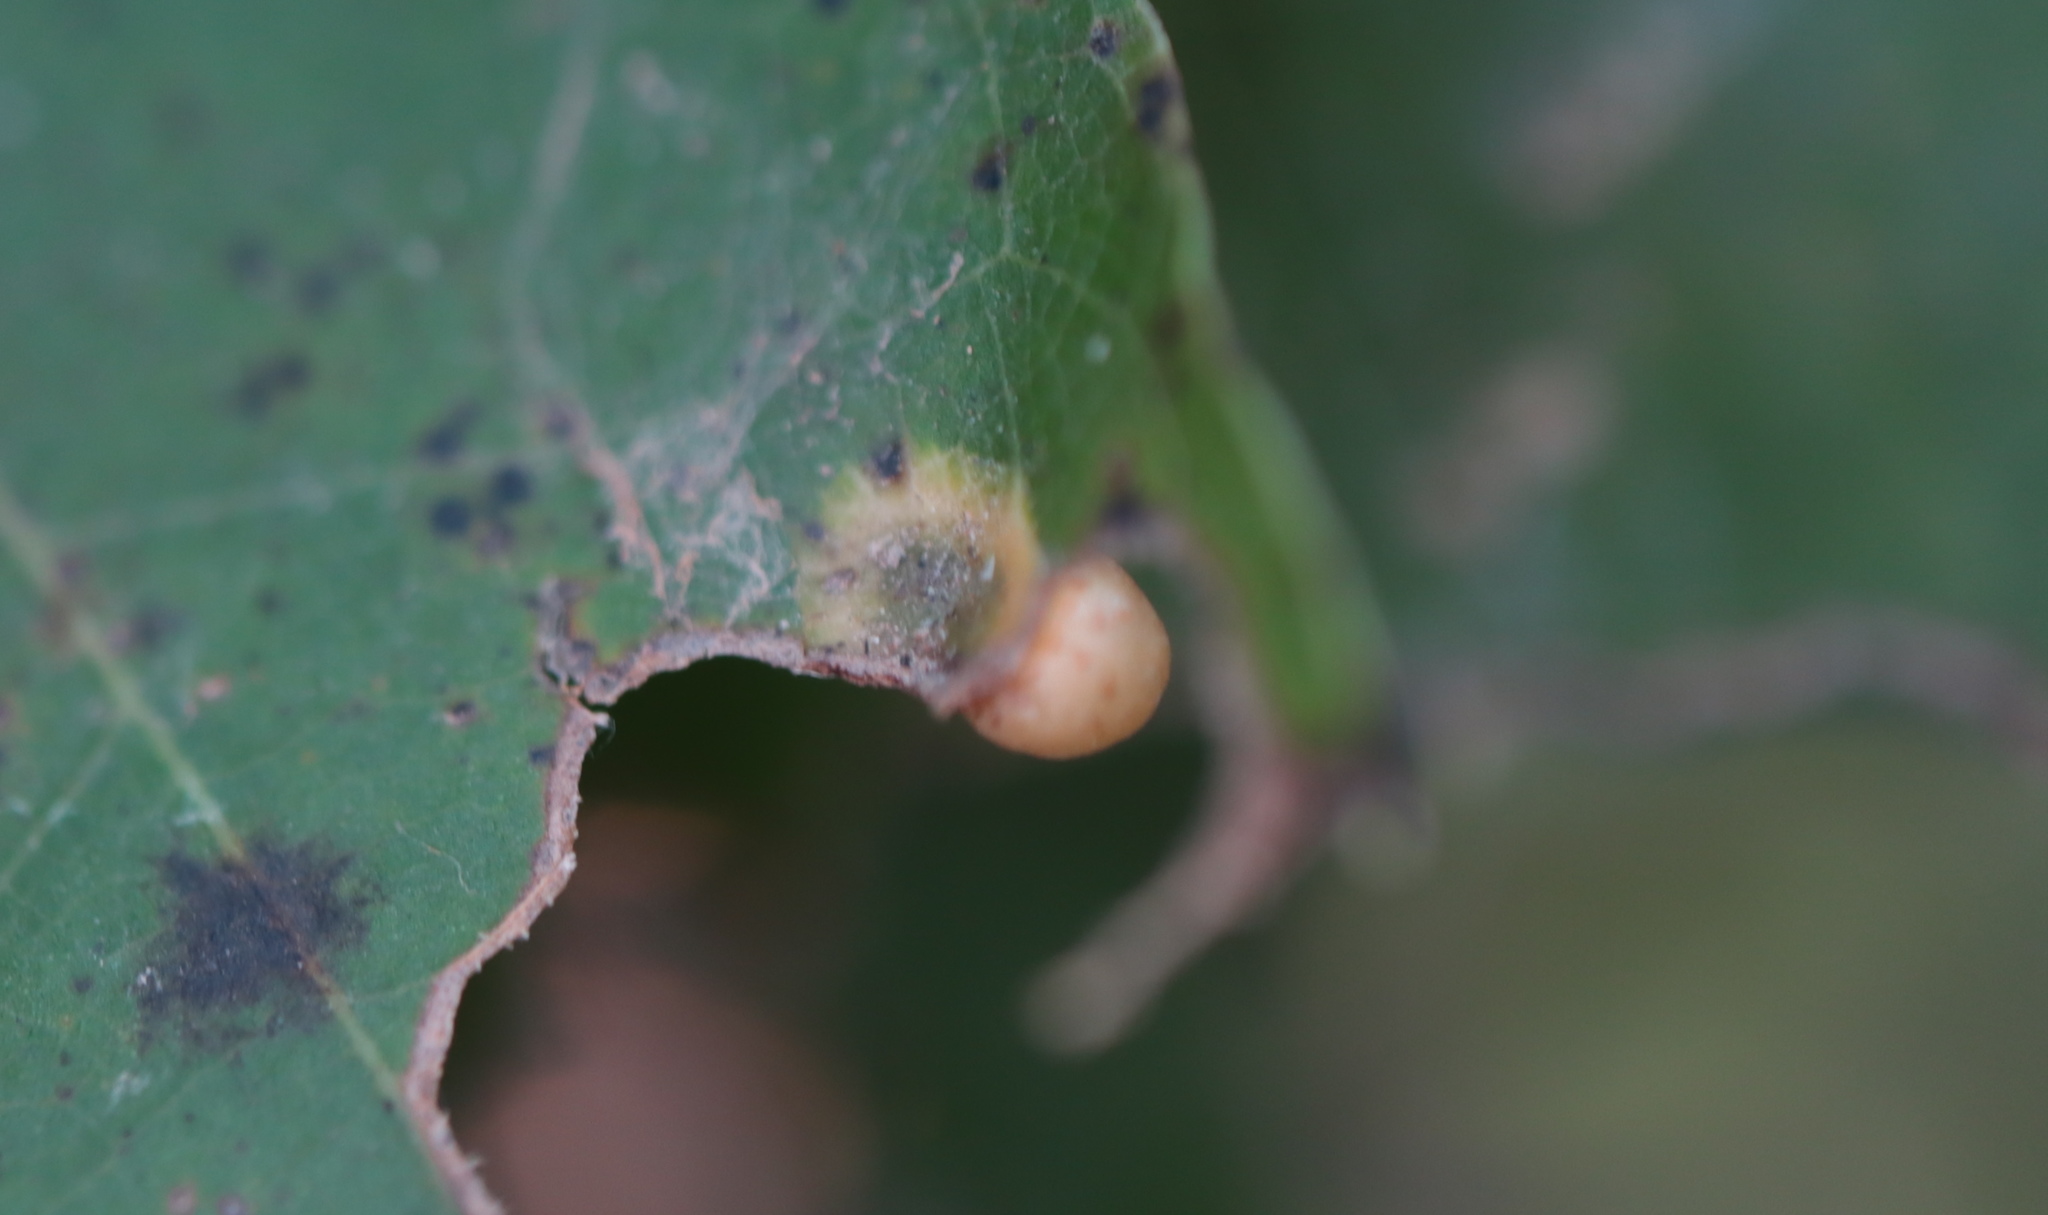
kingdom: Animalia
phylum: Arthropoda
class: Insecta
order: Diptera
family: Cecidomyiidae
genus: Polystepha
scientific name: Polystepha globosa
